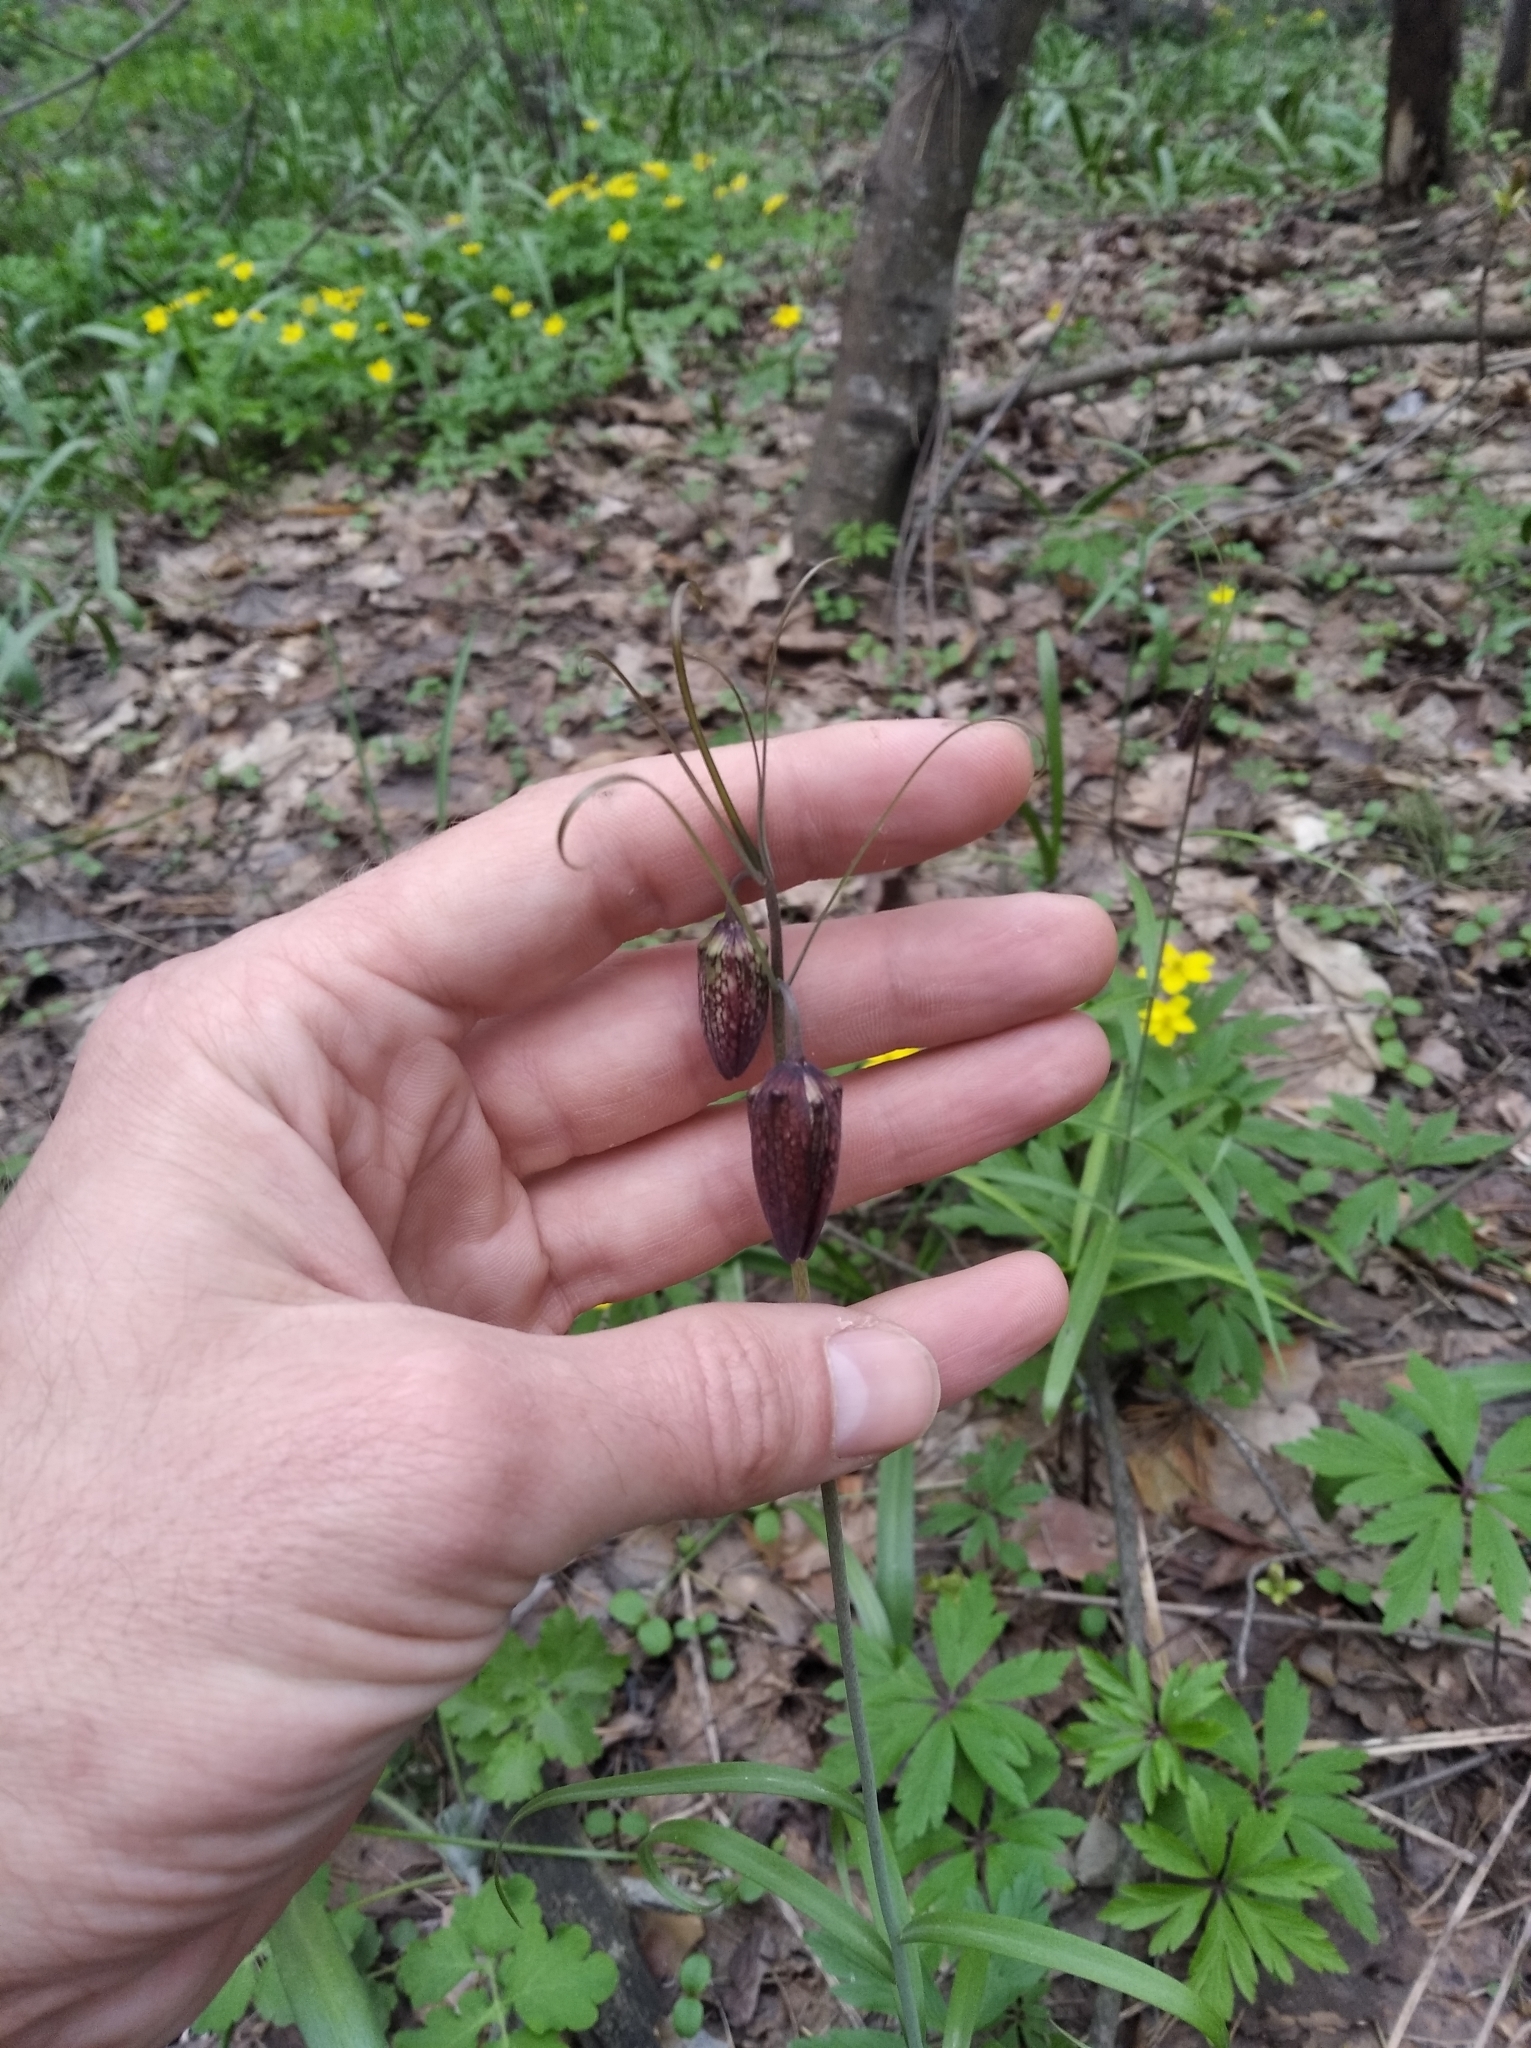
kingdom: Plantae
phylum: Tracheophyta
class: Liliopsida
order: Liliales
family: Liliaceae
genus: Fritillaria
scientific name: Fritillaria ruthenica
